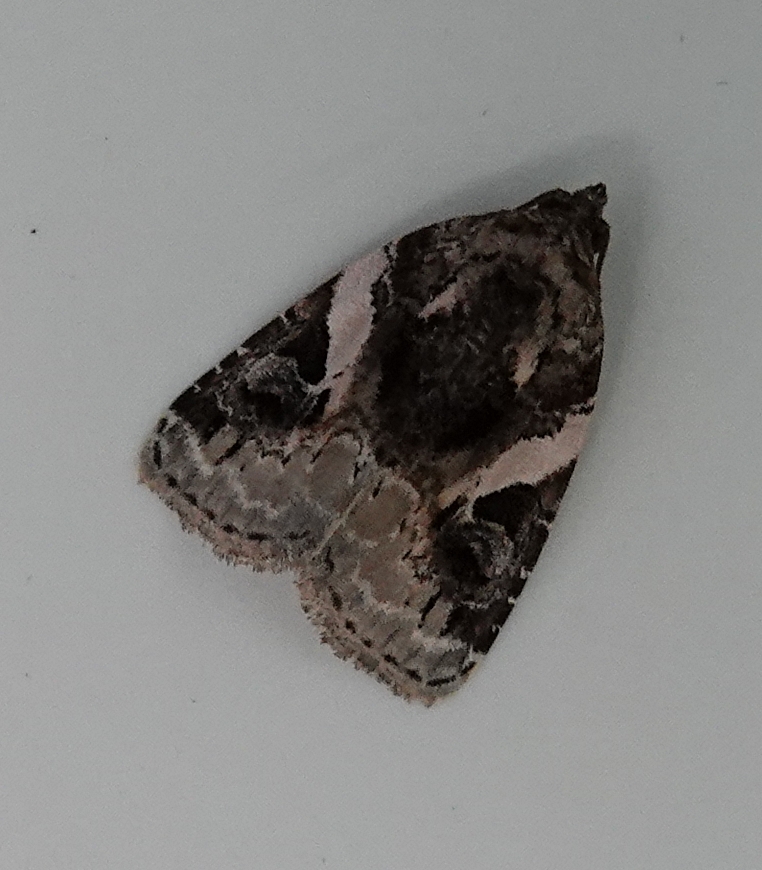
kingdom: Animalia
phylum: Arthropoda
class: Insecta
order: Lepidoptera
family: Noctuidae
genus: Pseudeustrotia
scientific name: Pseudeustrotia carneola
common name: Pink-barred lithacodia moth
